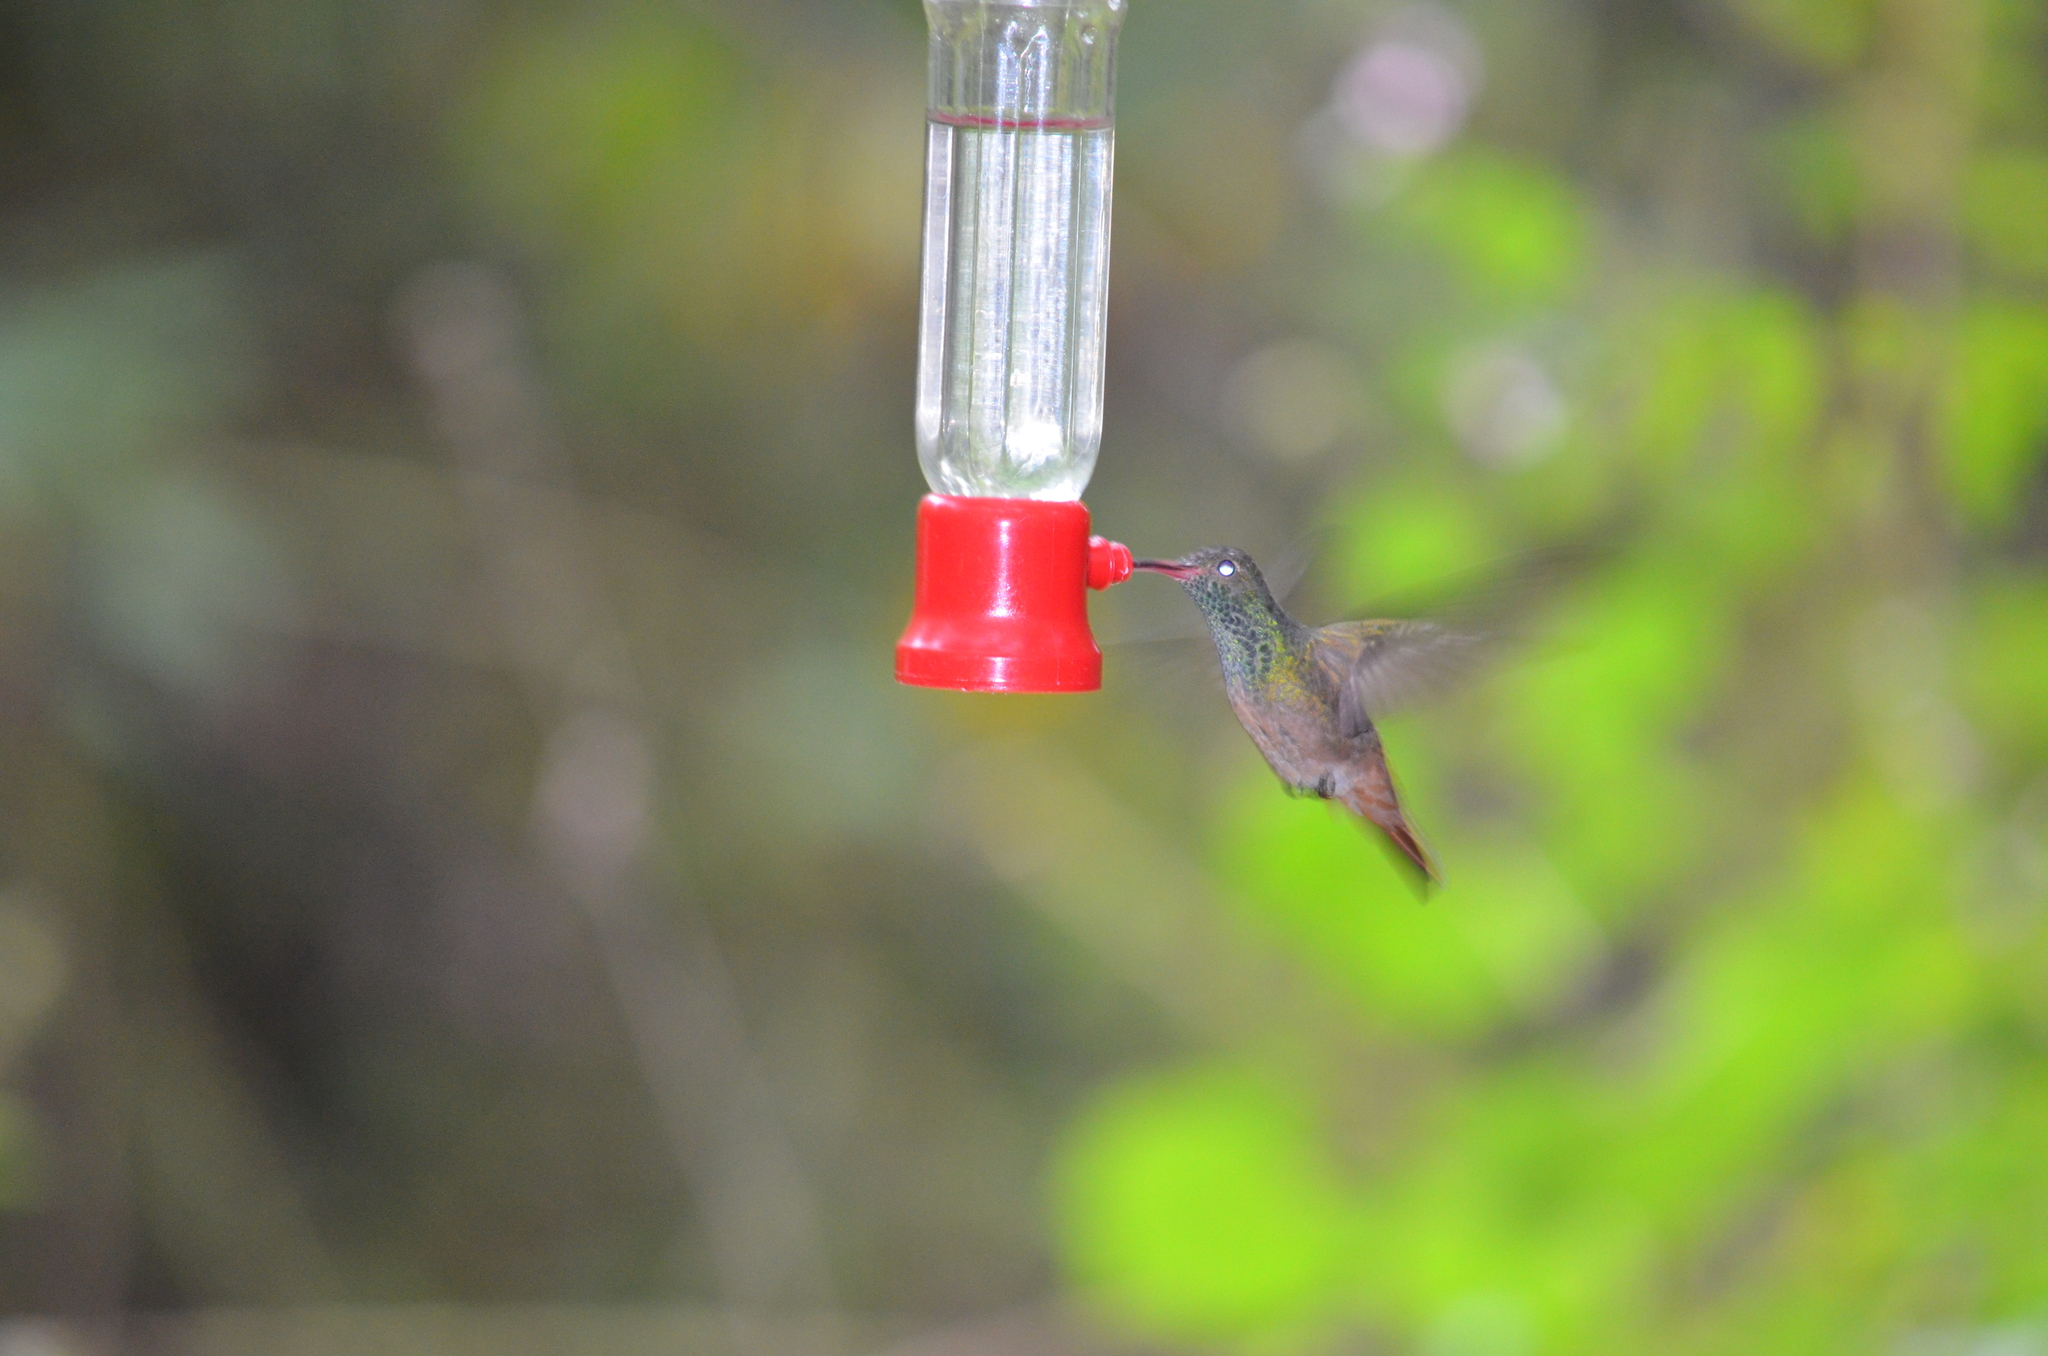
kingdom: Animalia
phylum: Chordata
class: Aves
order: Apodiformes
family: Trochilidae
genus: Amazilia
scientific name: Amazilia yucatanensis
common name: Buff-bellied hummingbird
